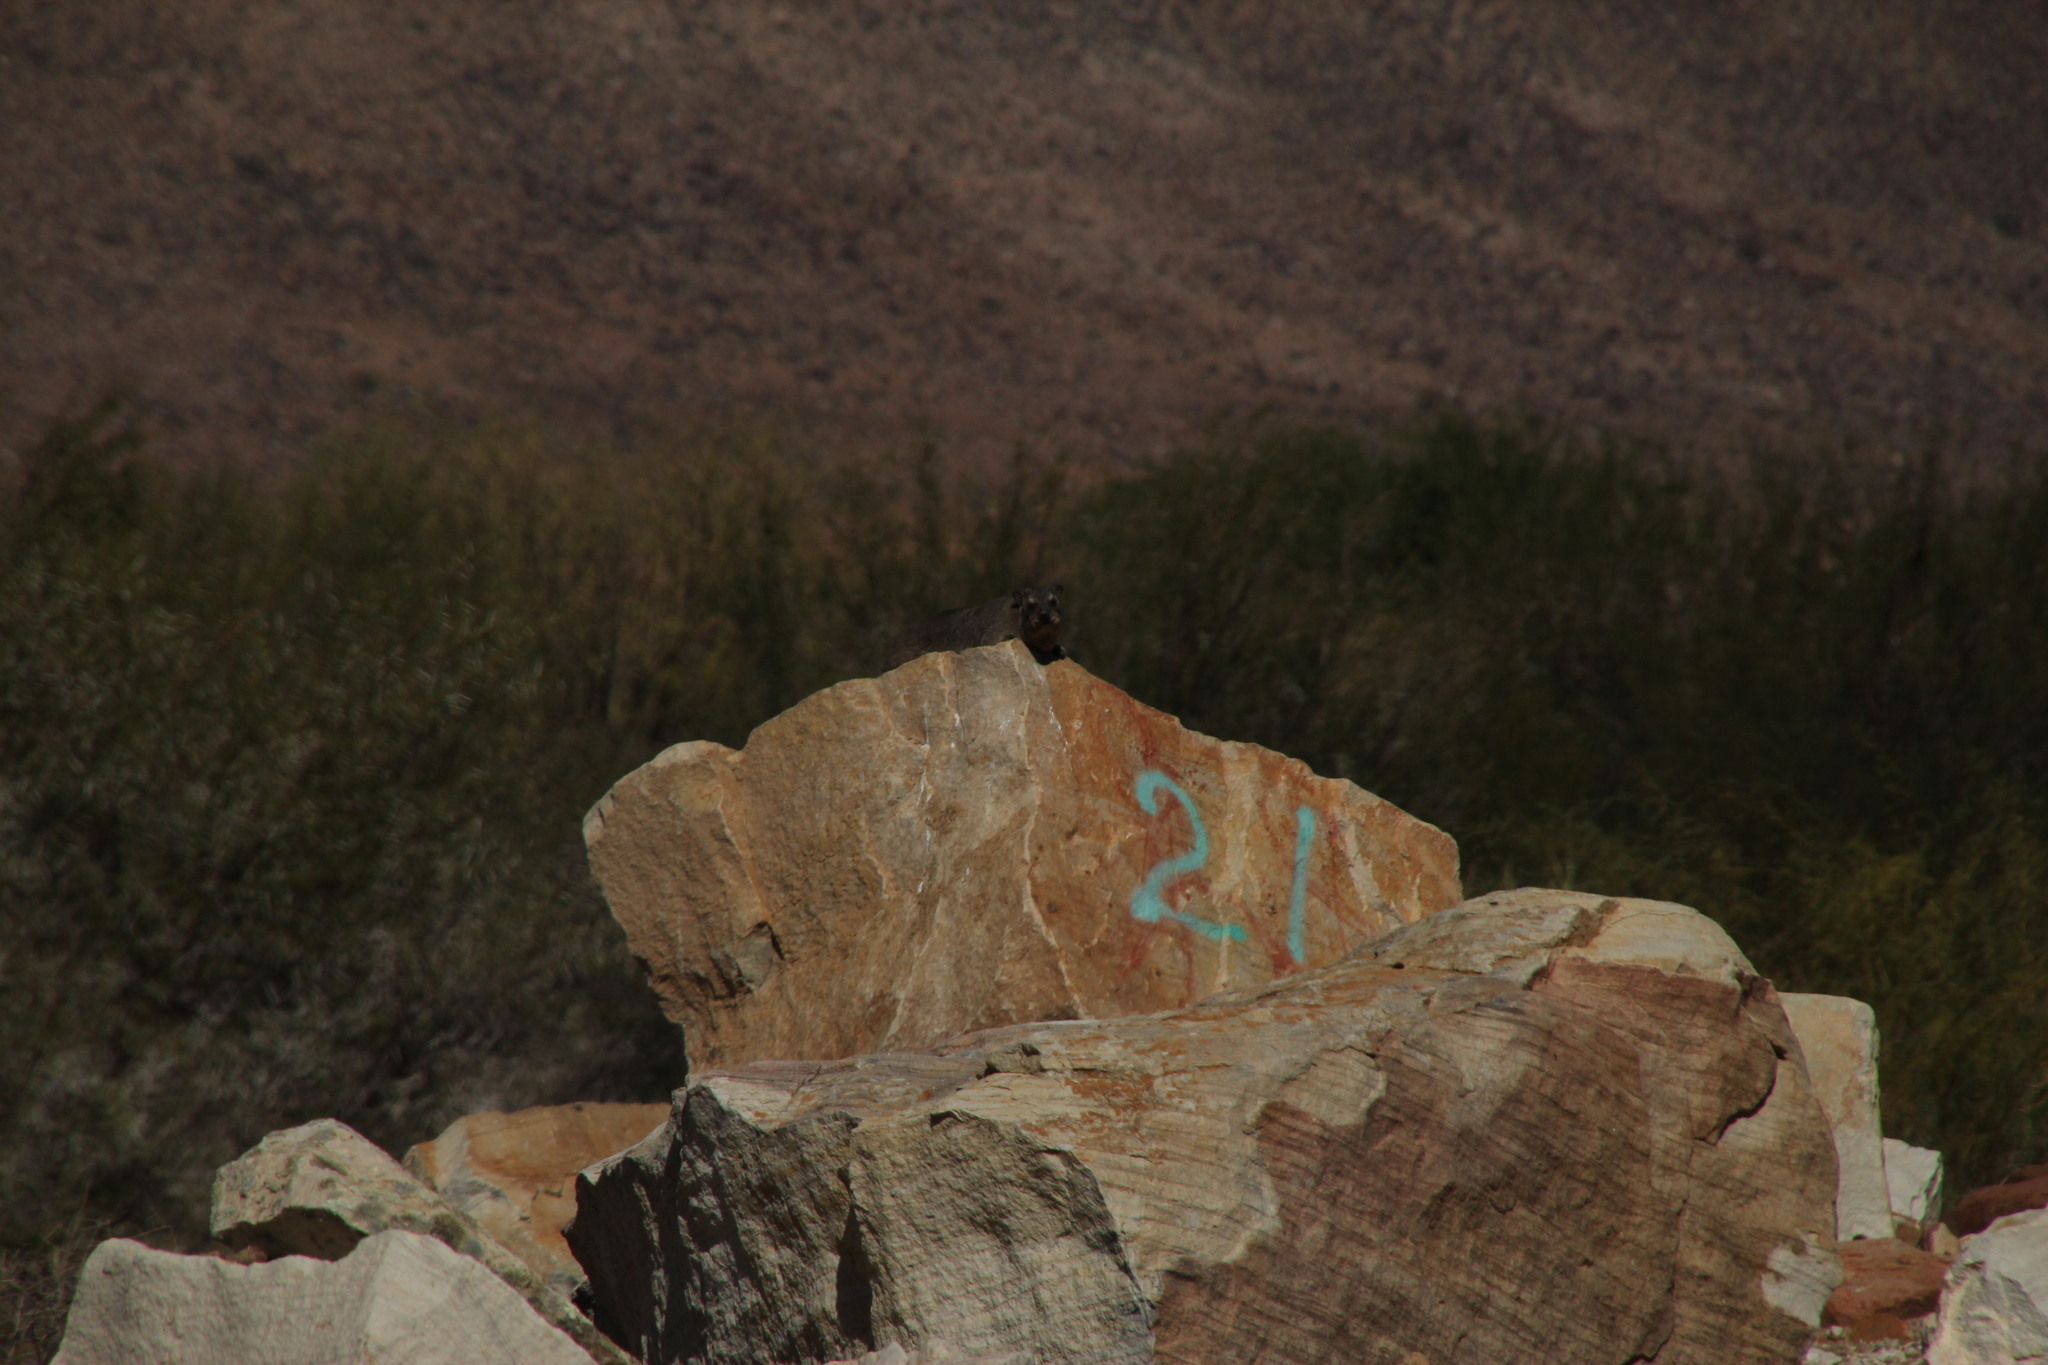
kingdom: Animalia
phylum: Chordata
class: Mammalia
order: Hyracoidea
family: Procaviidae
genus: Procavia
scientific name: Procavia capensis
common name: Rock hyrax
